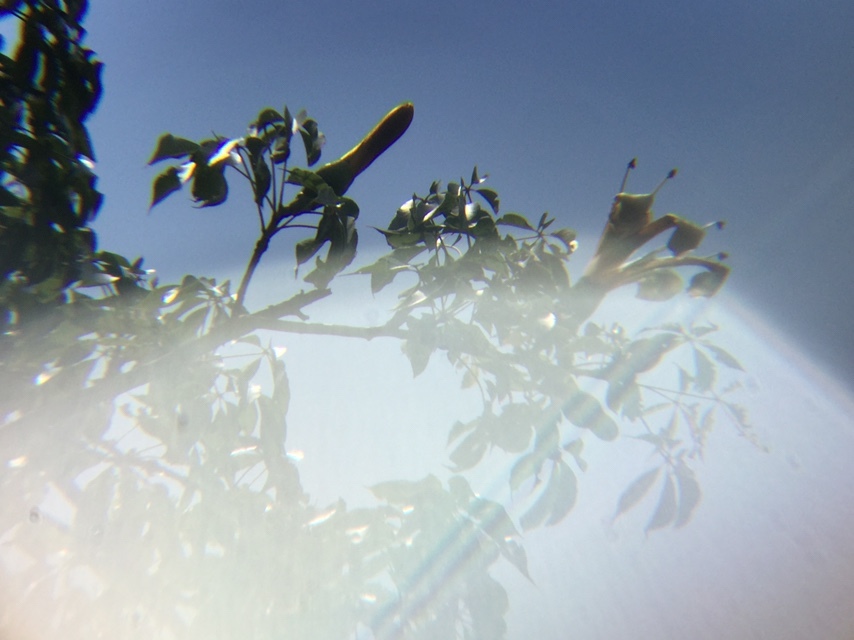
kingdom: Plantae
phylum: Tracheophyta
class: Magnoliopsida
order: Malvales
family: Malvaceae
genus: Ceiba
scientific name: Ceiba aesculifolia
